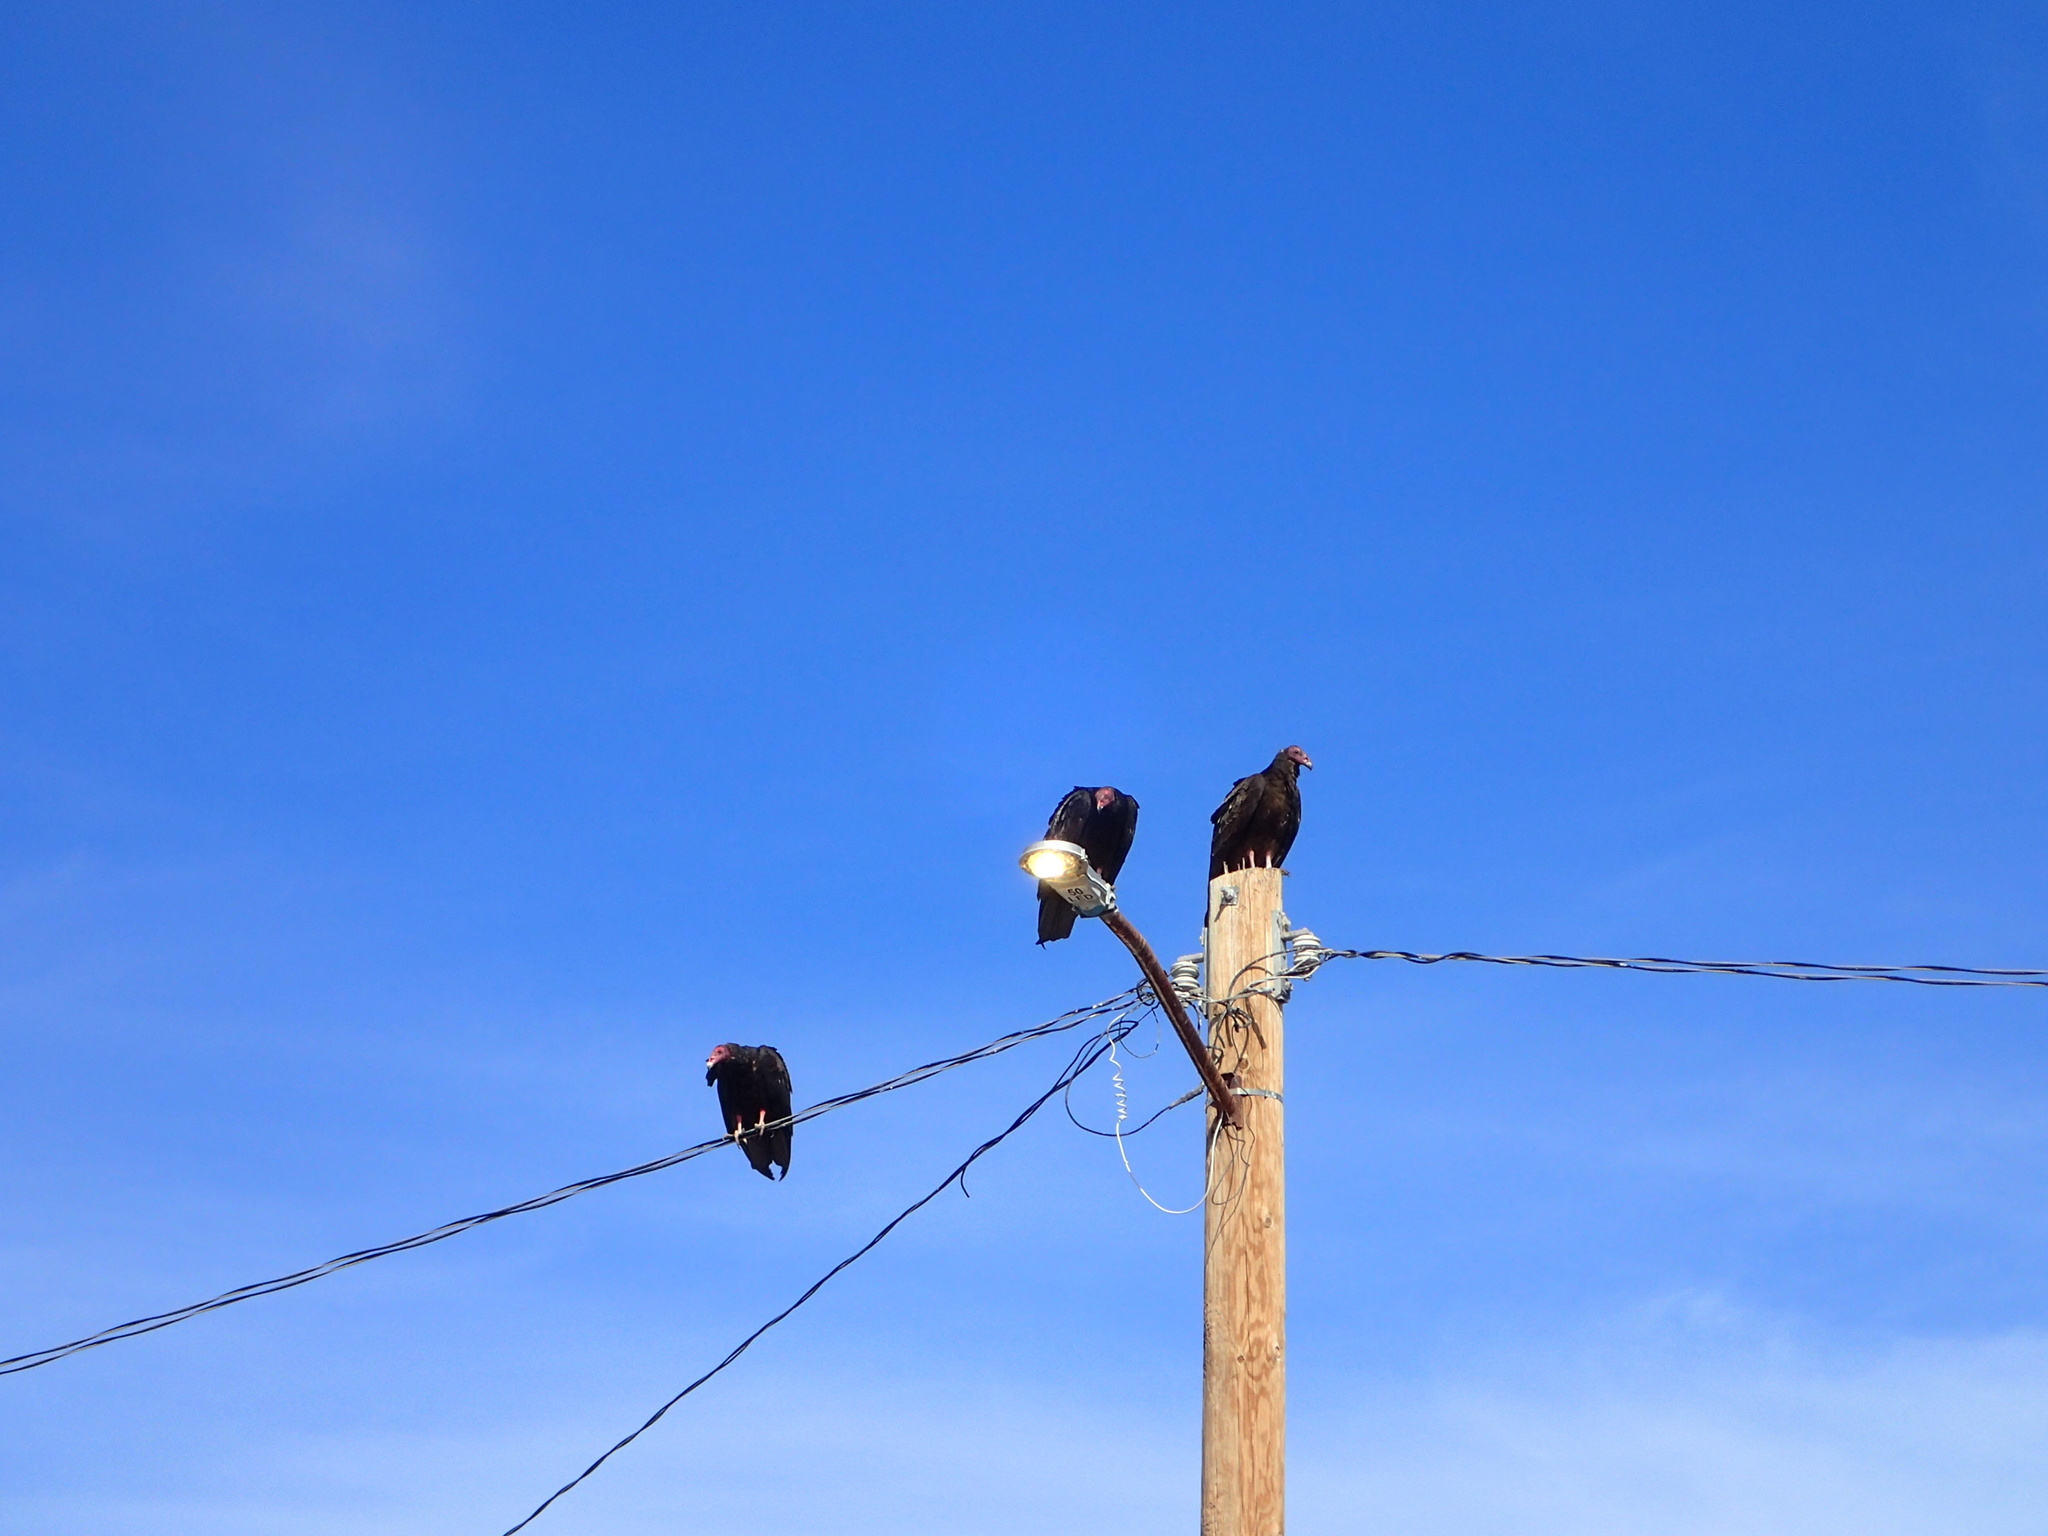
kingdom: Animalia
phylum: Chordata
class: Aves
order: Accipitriformes
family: Cathartidae
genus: Cathartes
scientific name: Cathartes aura
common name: Turkey vulture
